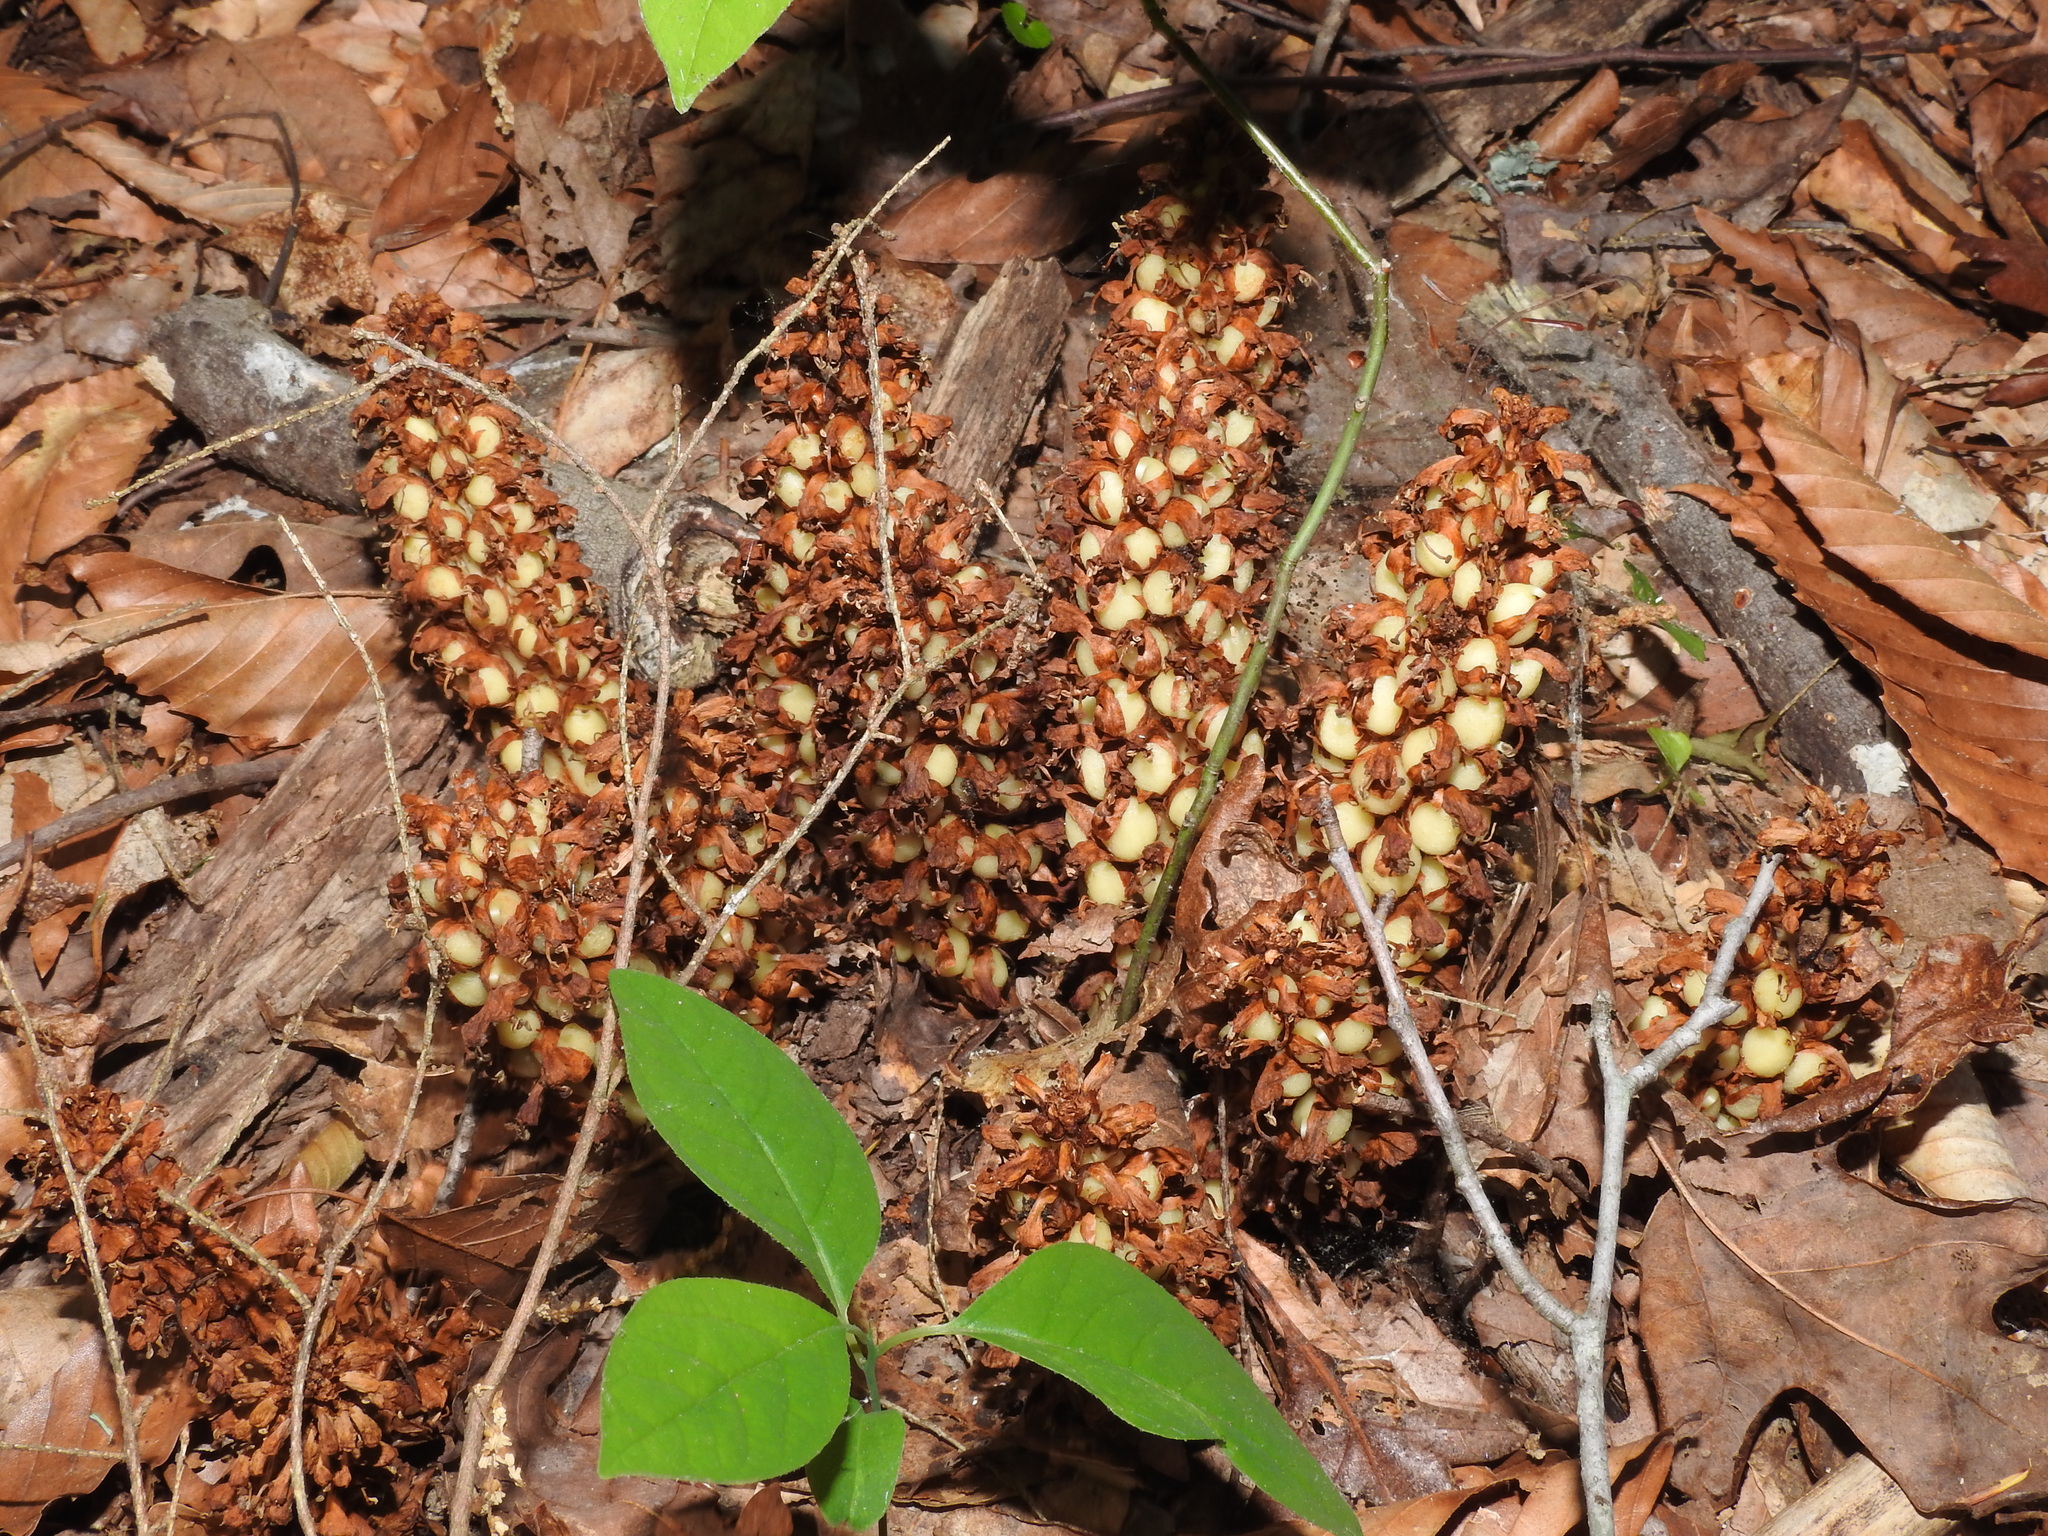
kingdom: Plantae
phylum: Tracheophyta
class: Magnoliopsida
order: Lamiales
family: Orobanchaceae
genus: Conopholis
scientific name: Conopholis americana
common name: American cancer-root
